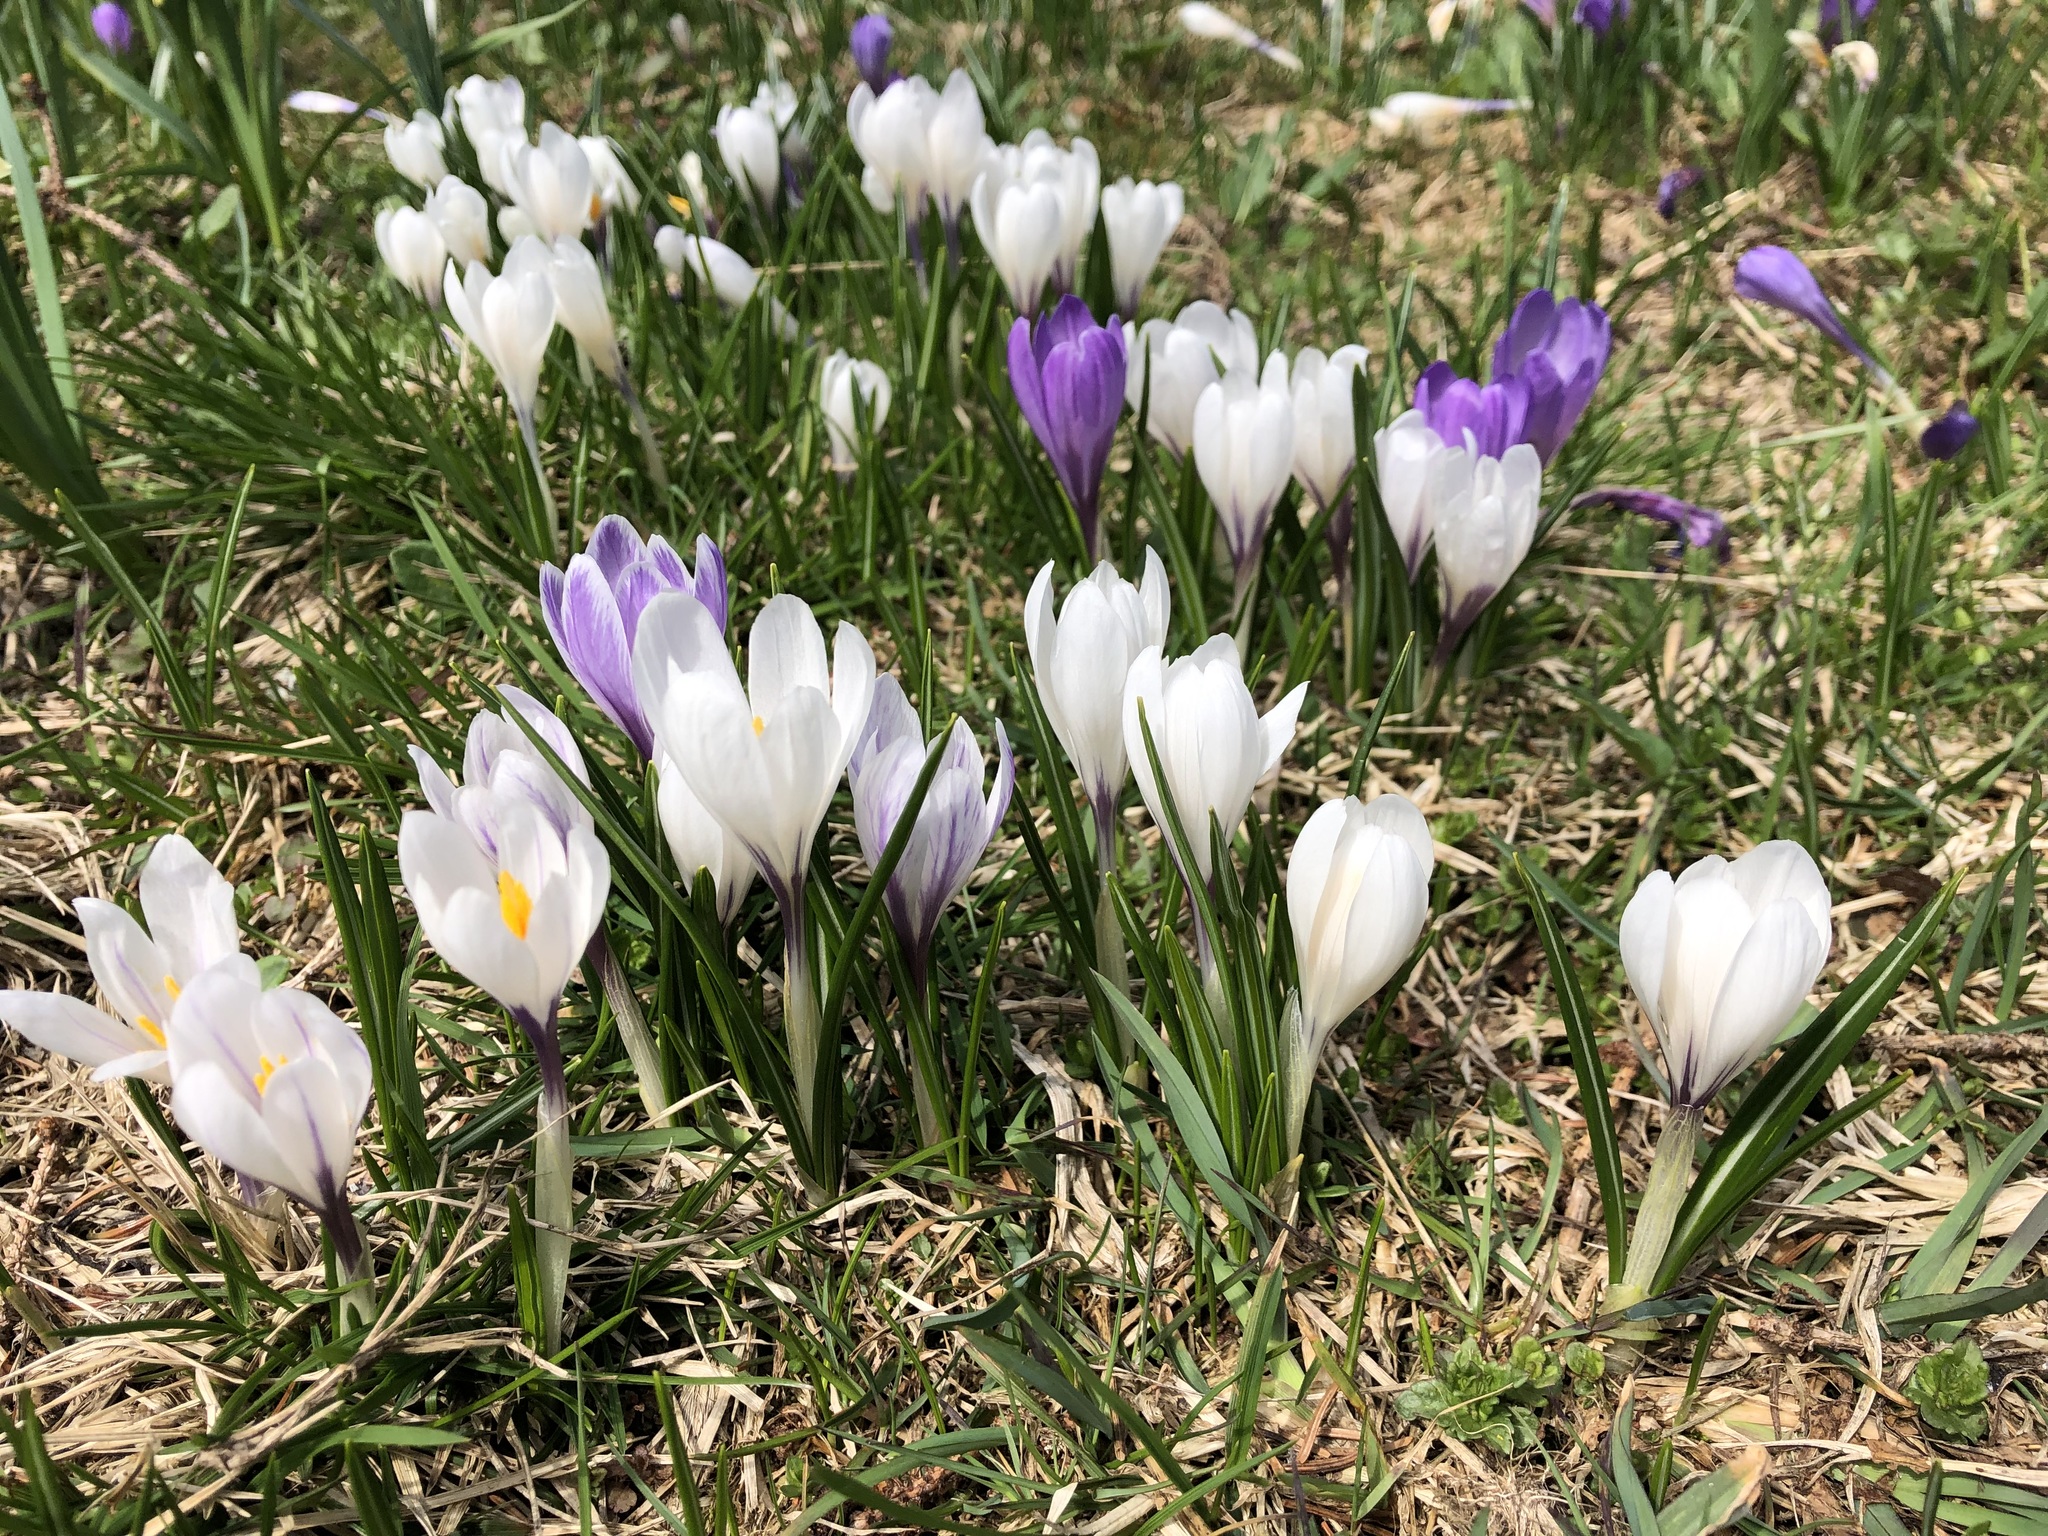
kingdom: Plantae
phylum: Tracheophyta
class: Liliopsida
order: Asparagales
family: Iridaceae
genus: Crocus
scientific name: Crocus vernus
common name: Spring crocus
